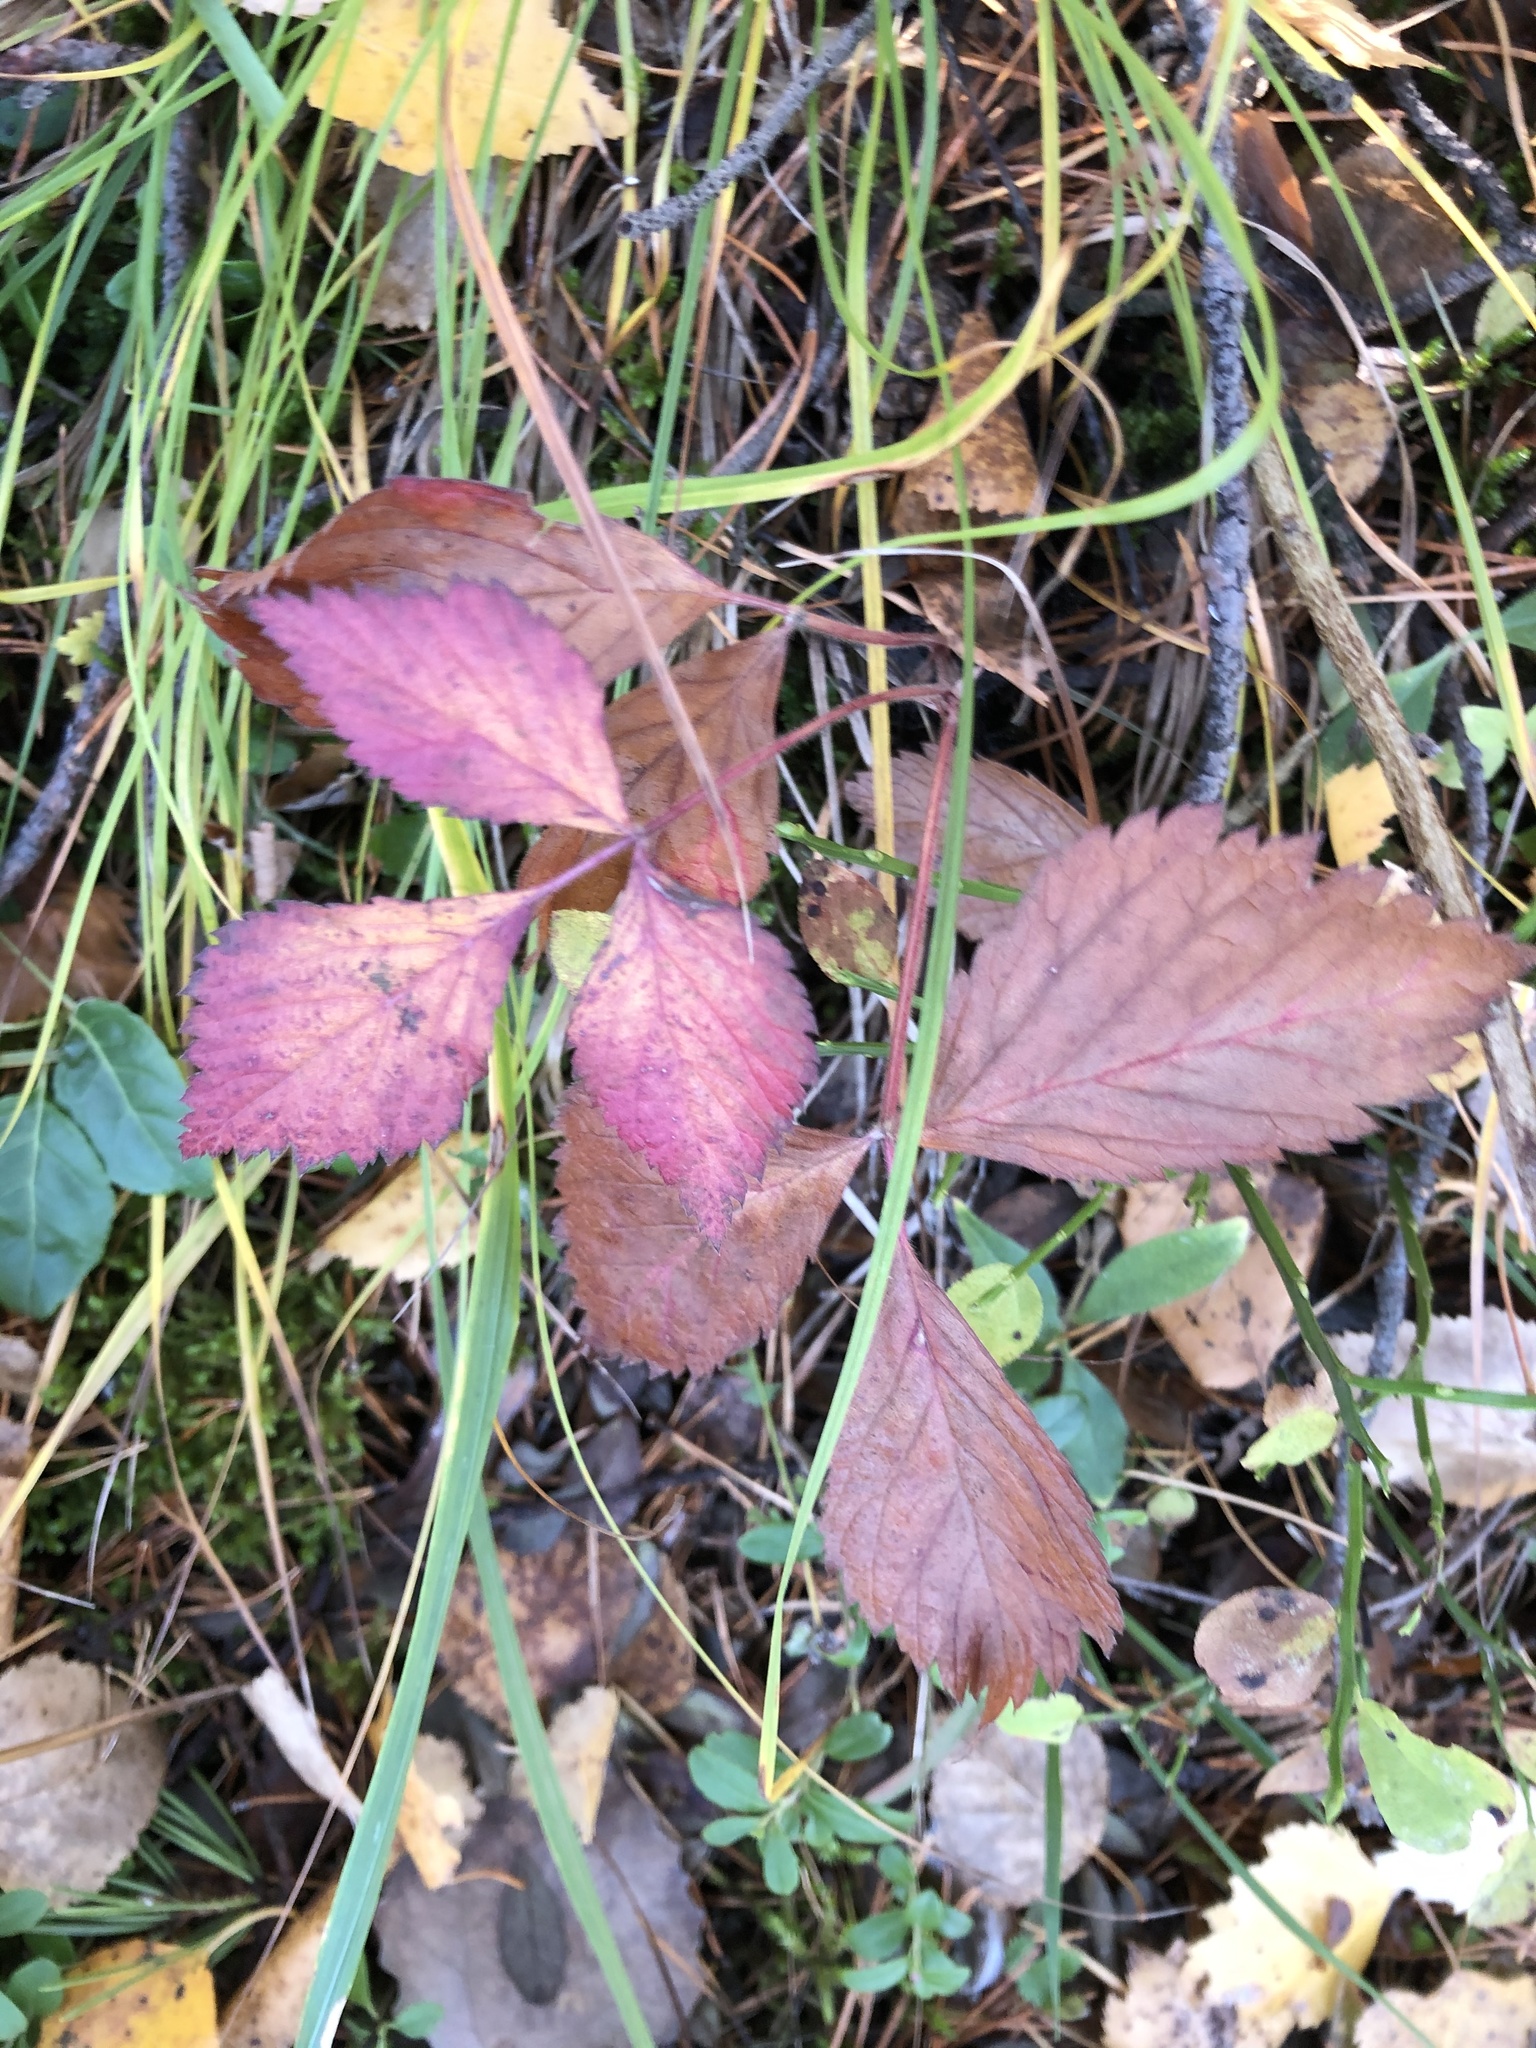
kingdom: Plantae
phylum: Tracheophyta
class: Magnoliopsida
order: Rosales
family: Rosaceae
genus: Rubus
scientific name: Rubus saxatilis
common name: Stone bramble
